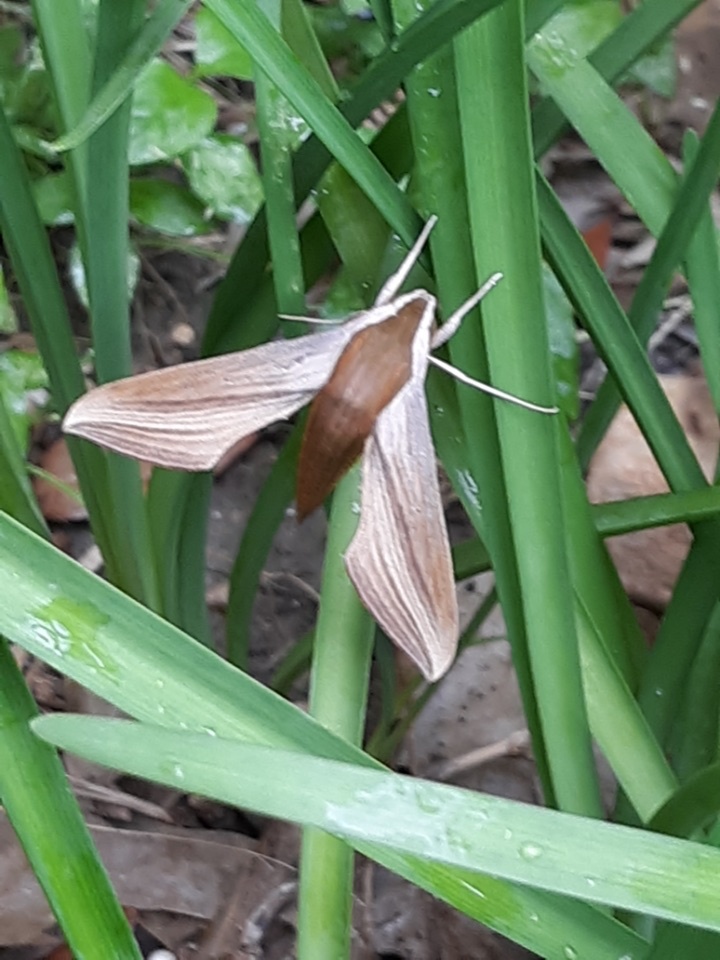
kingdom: Animalia
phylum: Arthropoda
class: Insecta
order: Lepidoptera
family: Sphingidae
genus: Xylophanes
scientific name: Xylophanes tersa
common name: Tersa sphinx
